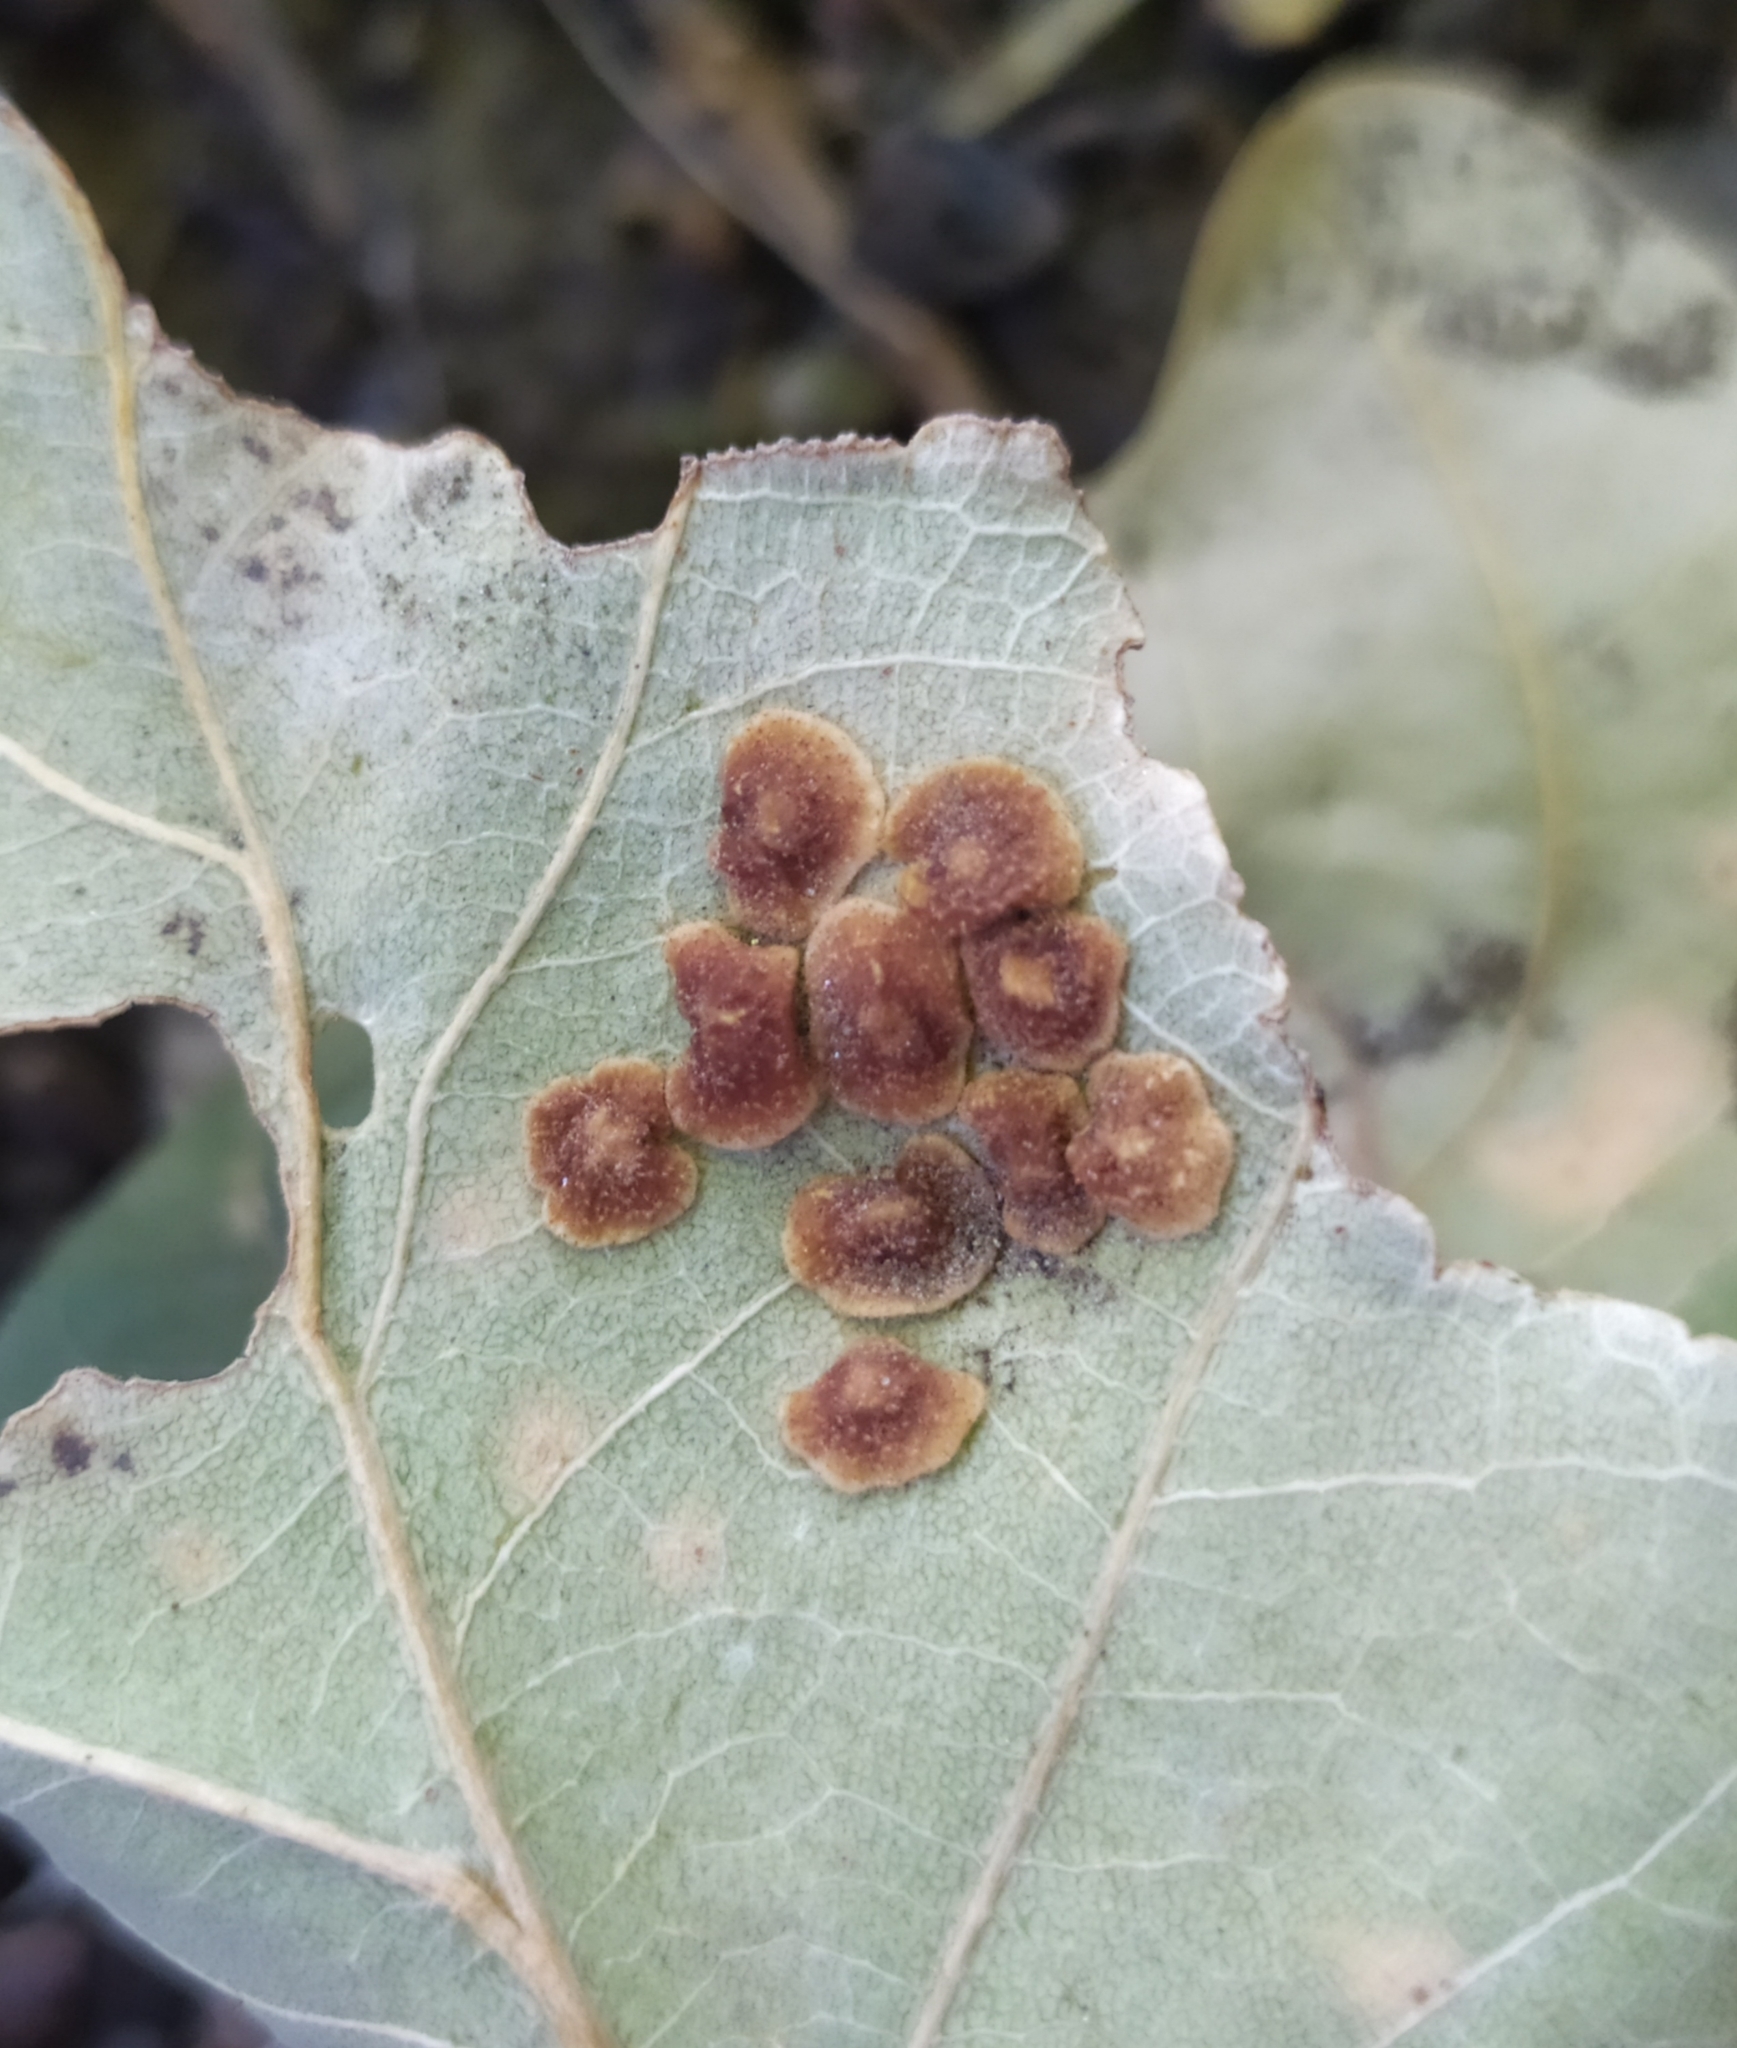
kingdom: Animalia
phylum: Arthropoda
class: Insecta
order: Hymenoptera
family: Cynipidae
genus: Neuroterus
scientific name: Neuroterus quercusbaccarum
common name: Common spangle gall
